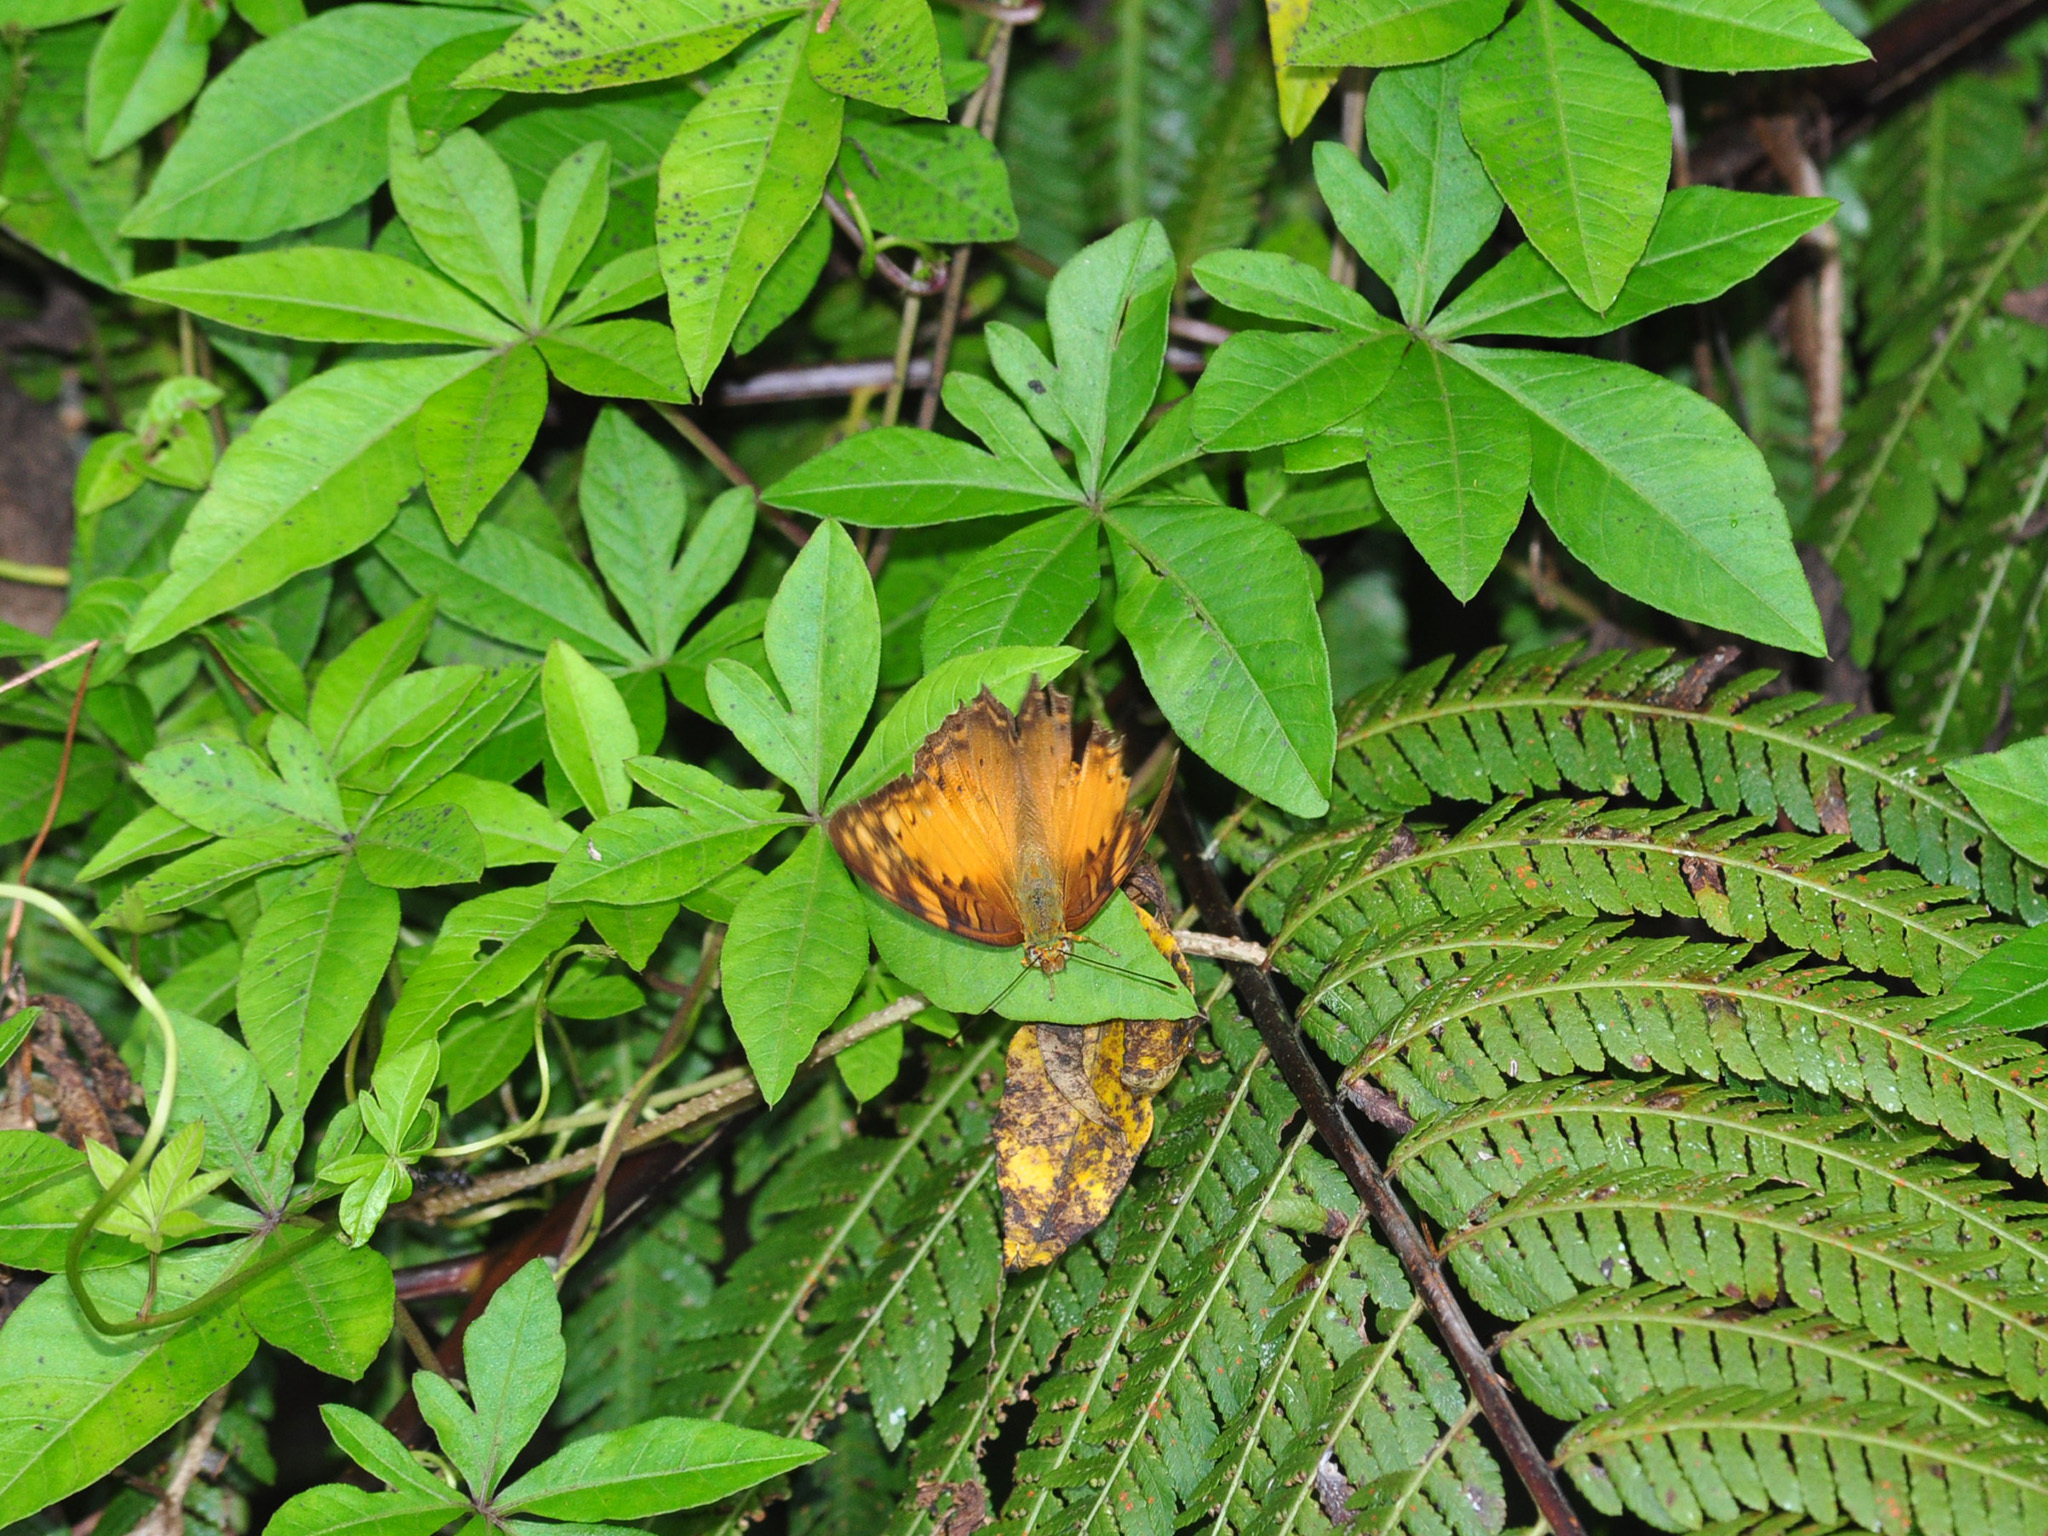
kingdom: Animalia
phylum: Arthropoda
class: Insecta
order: Lepidoptera
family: Nymphalidae
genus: Vagrans
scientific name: Vagrans sinha
